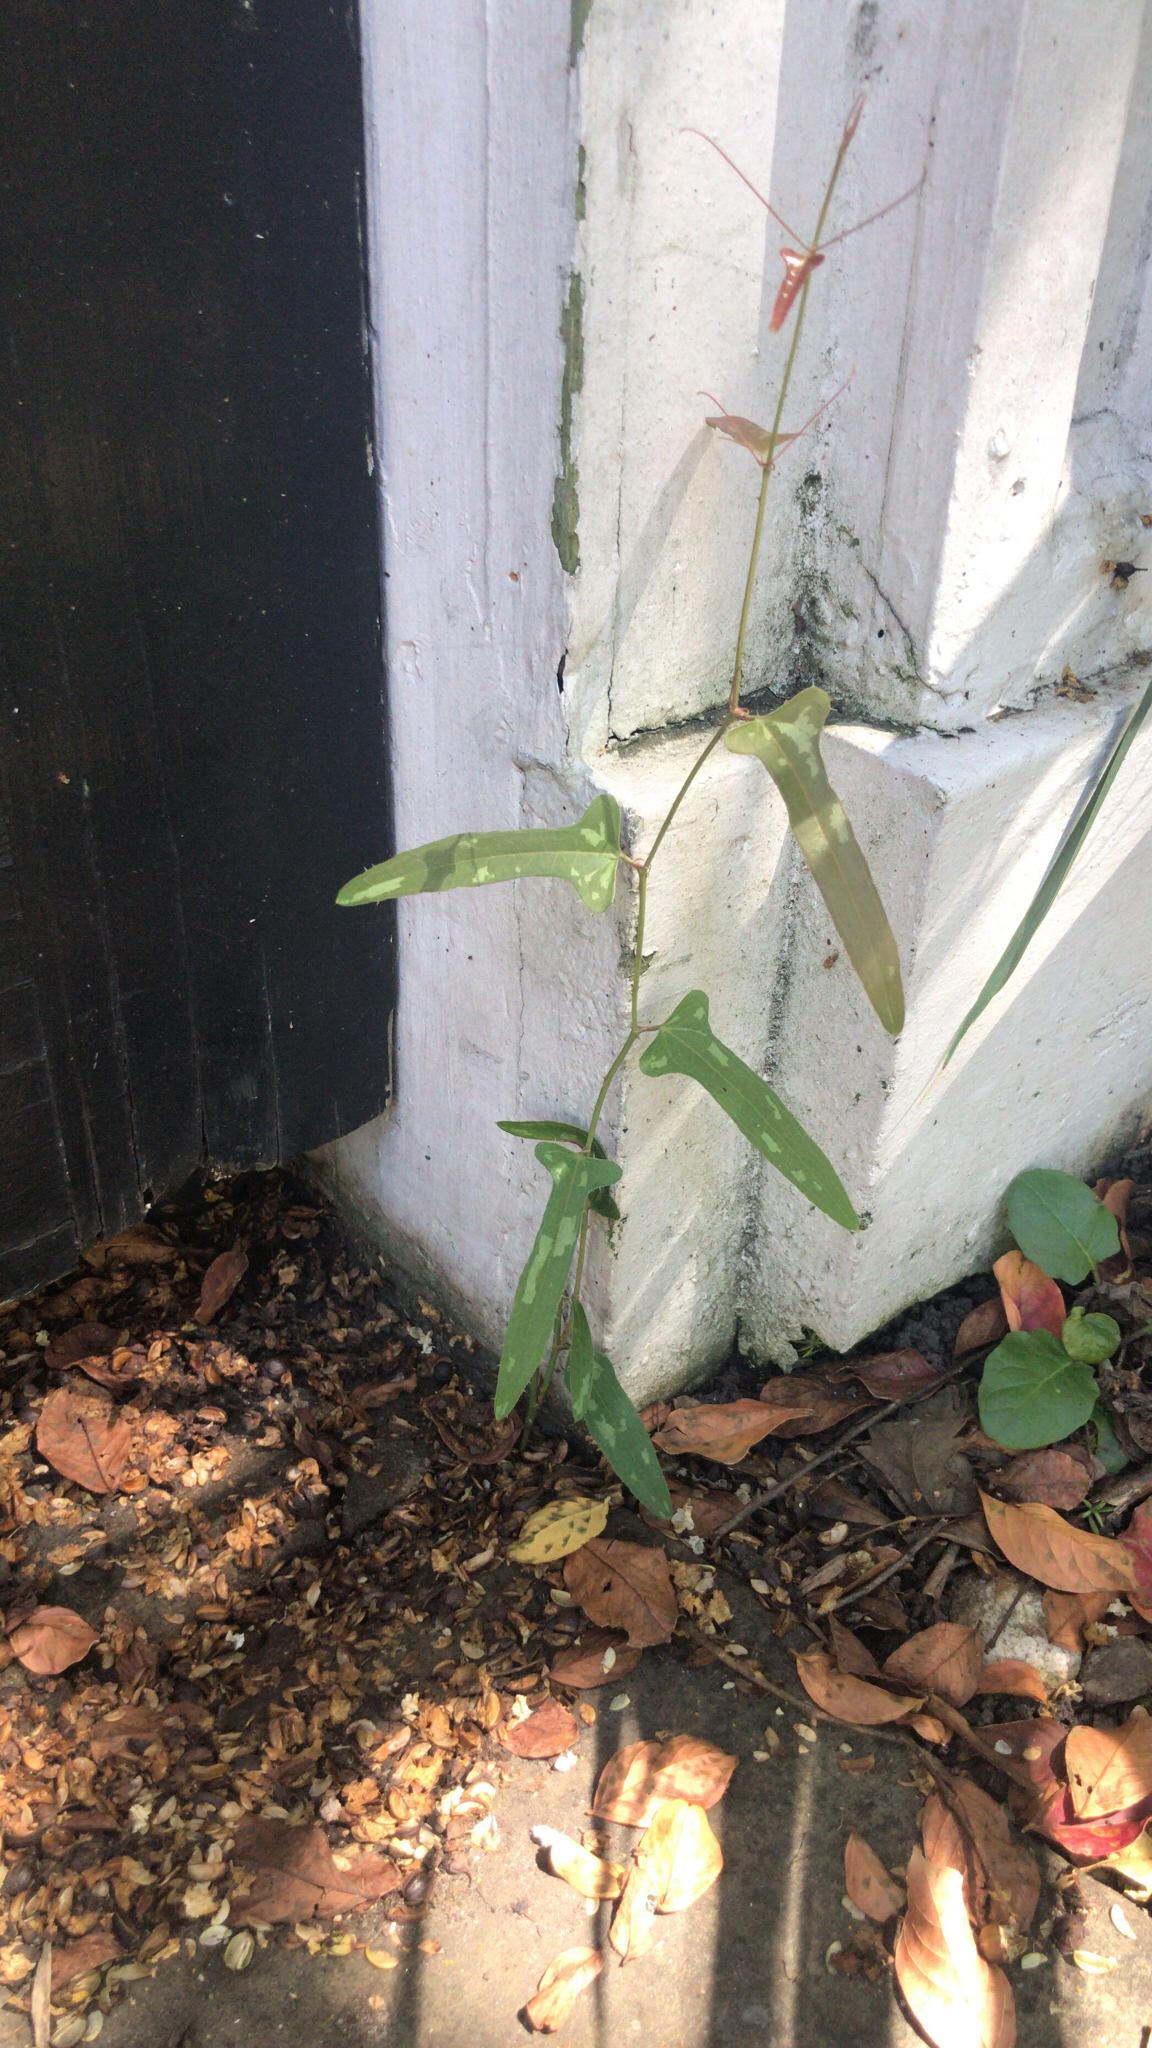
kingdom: Plantae
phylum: Tracheophyta
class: Liliopsida
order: Liliales
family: Smilacaceae
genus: Smilax
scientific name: Smilax bona-nox
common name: Catbrier
